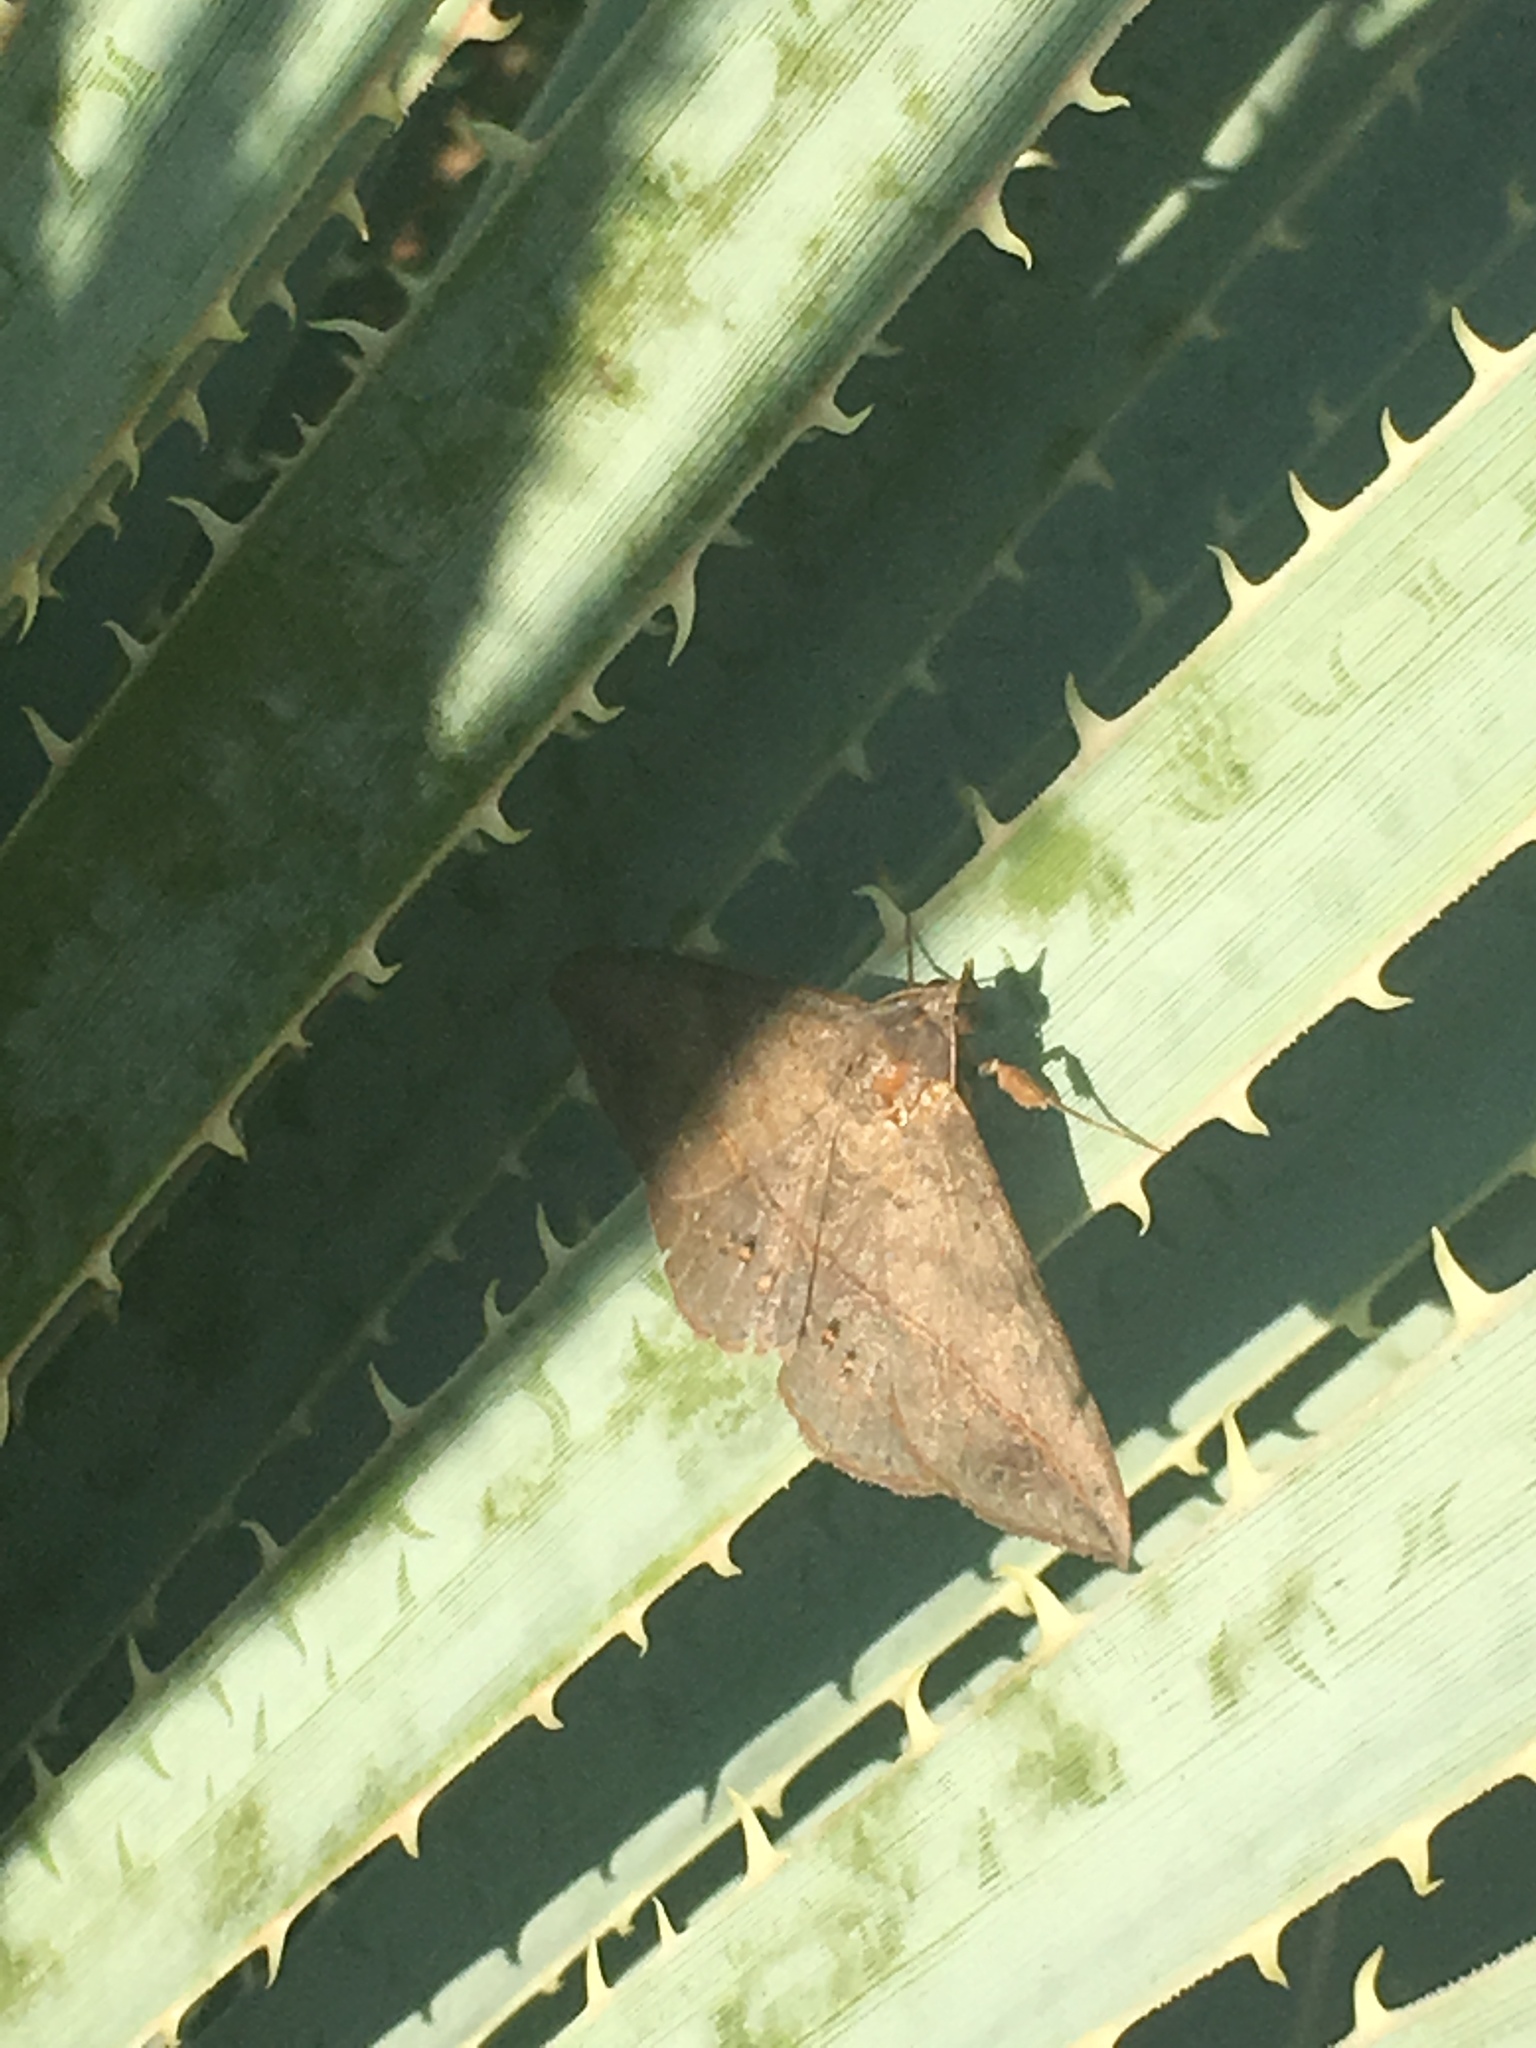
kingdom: Animalia
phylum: Arthropoda
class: Insecta
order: Lepidoptera
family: Erebidae
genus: Anticarsia
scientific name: Anticarsia gemmatalis
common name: Cutworm moth
